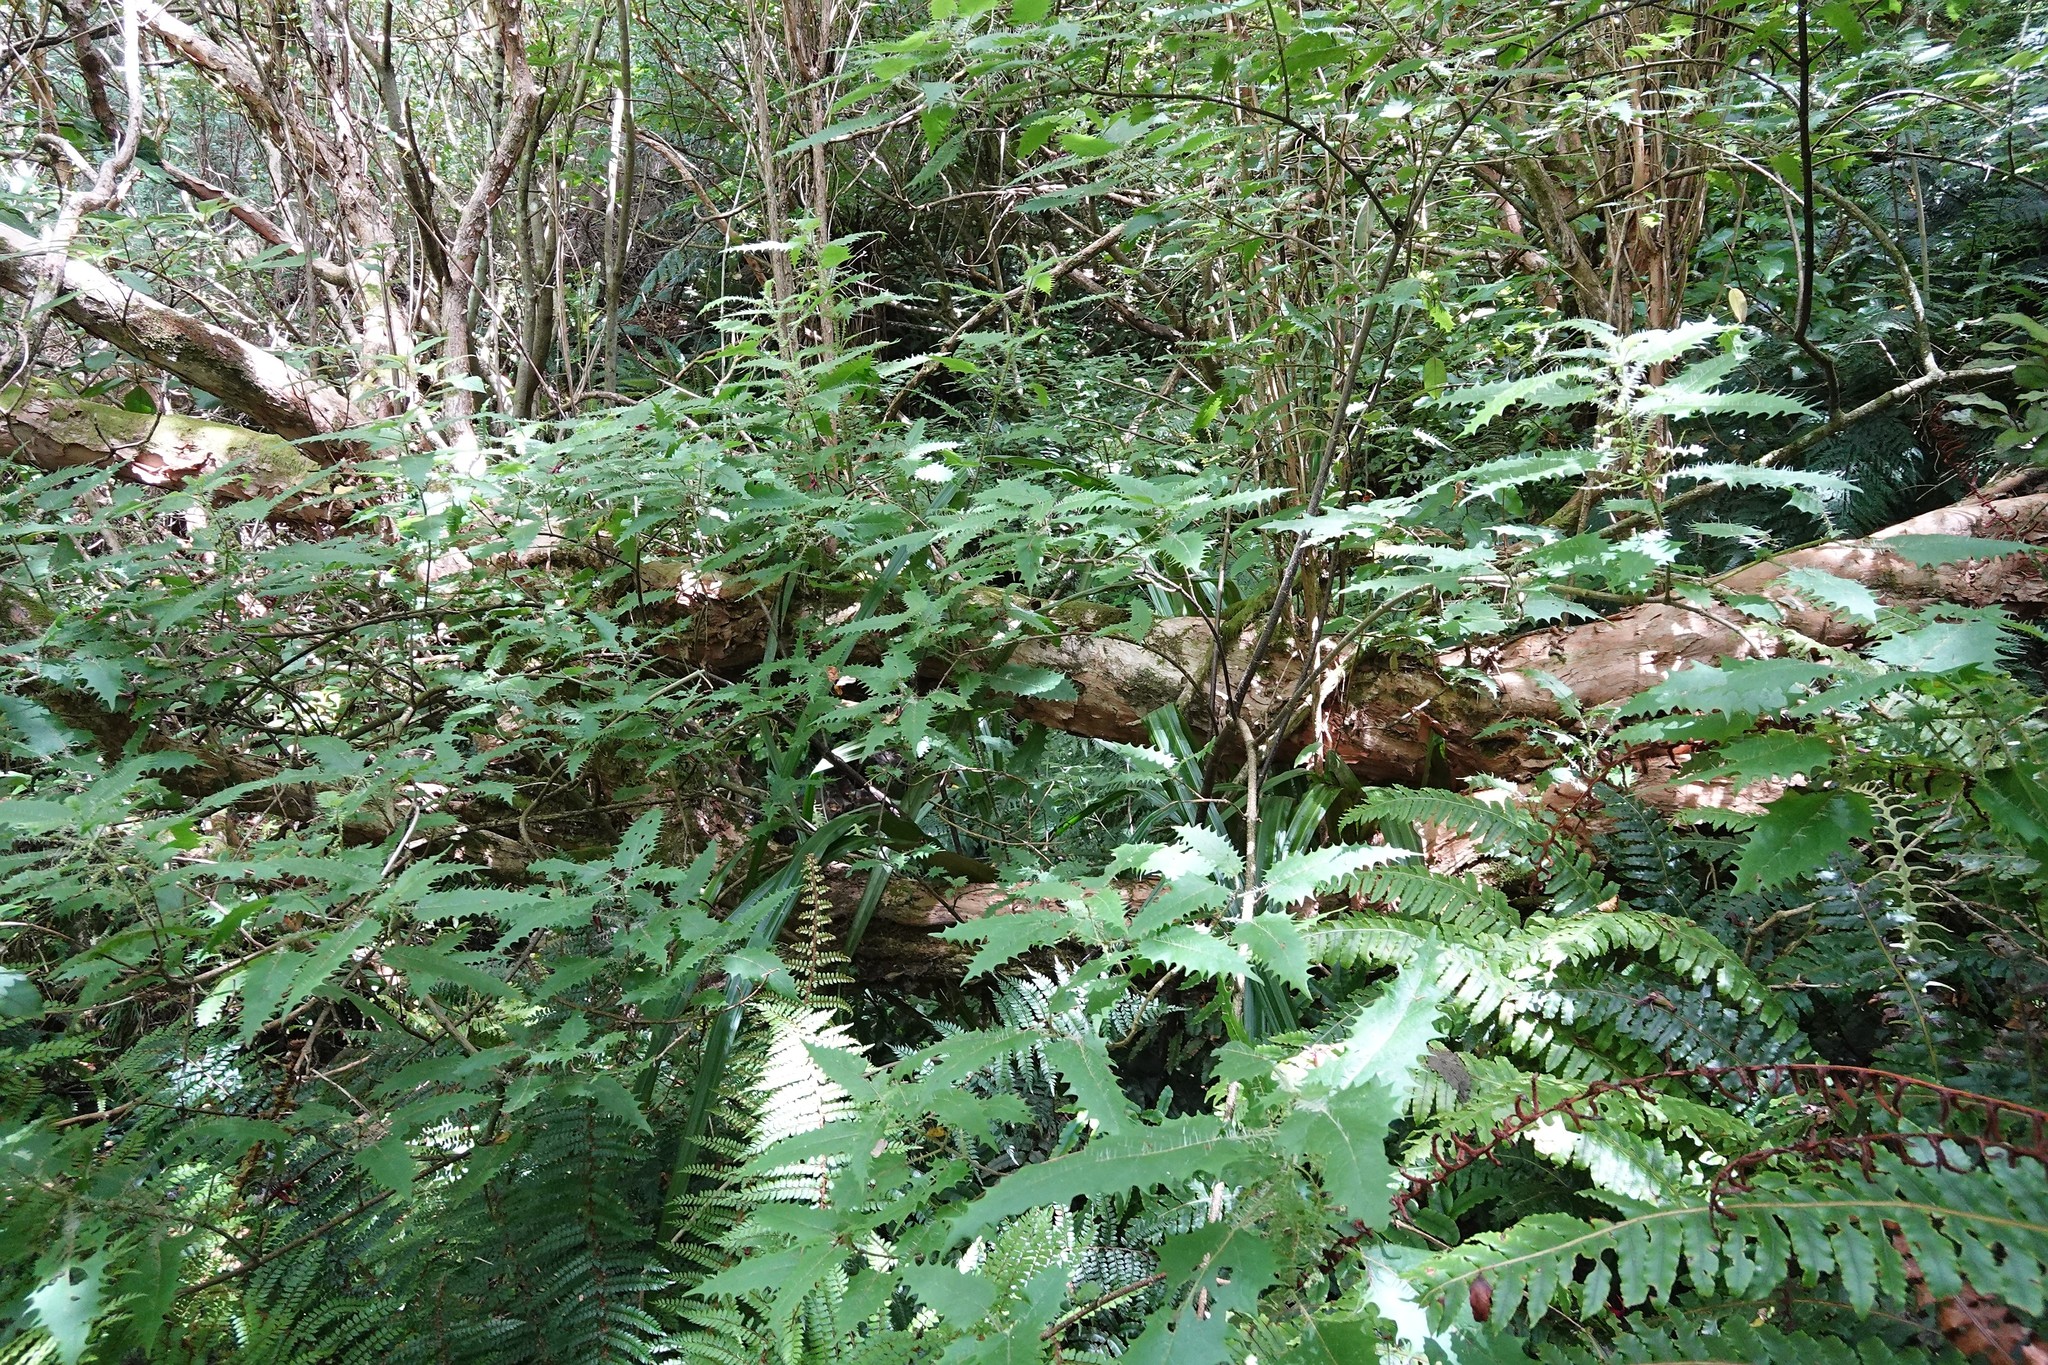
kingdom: Plantae
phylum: Tracheophyta
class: Magnoliopsida
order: Rosales
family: Urticaceae
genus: Urtica
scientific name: Urtica ferox
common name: Tree nettle
